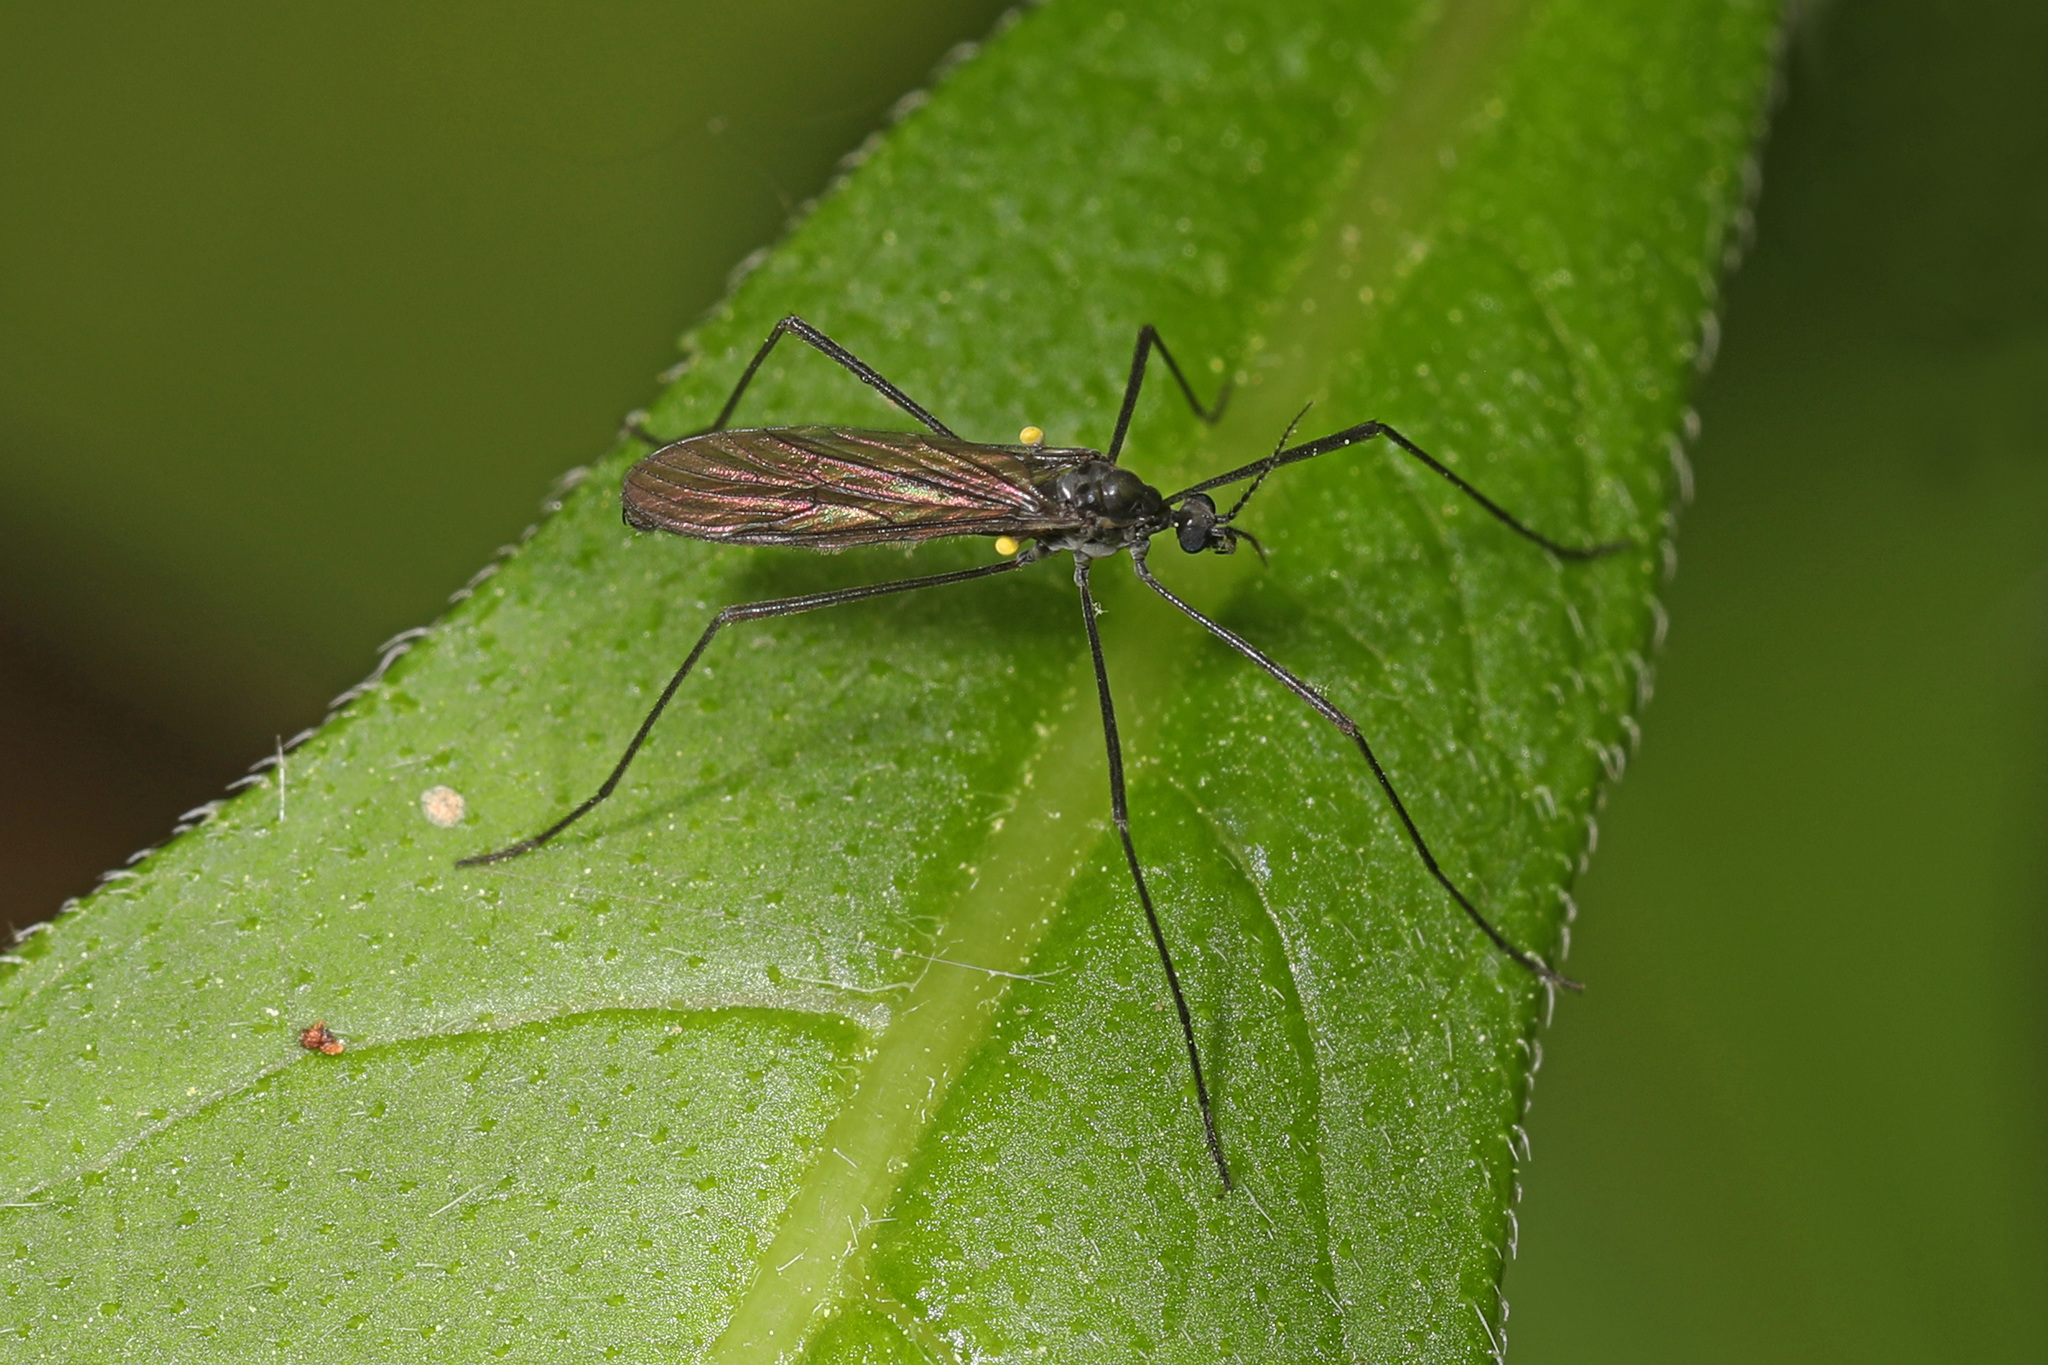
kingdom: Animalia
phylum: Arthropoda
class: Insecta
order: Diptera
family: Limoniidae
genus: Gnophomyia
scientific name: Gnophomyia tristissima
